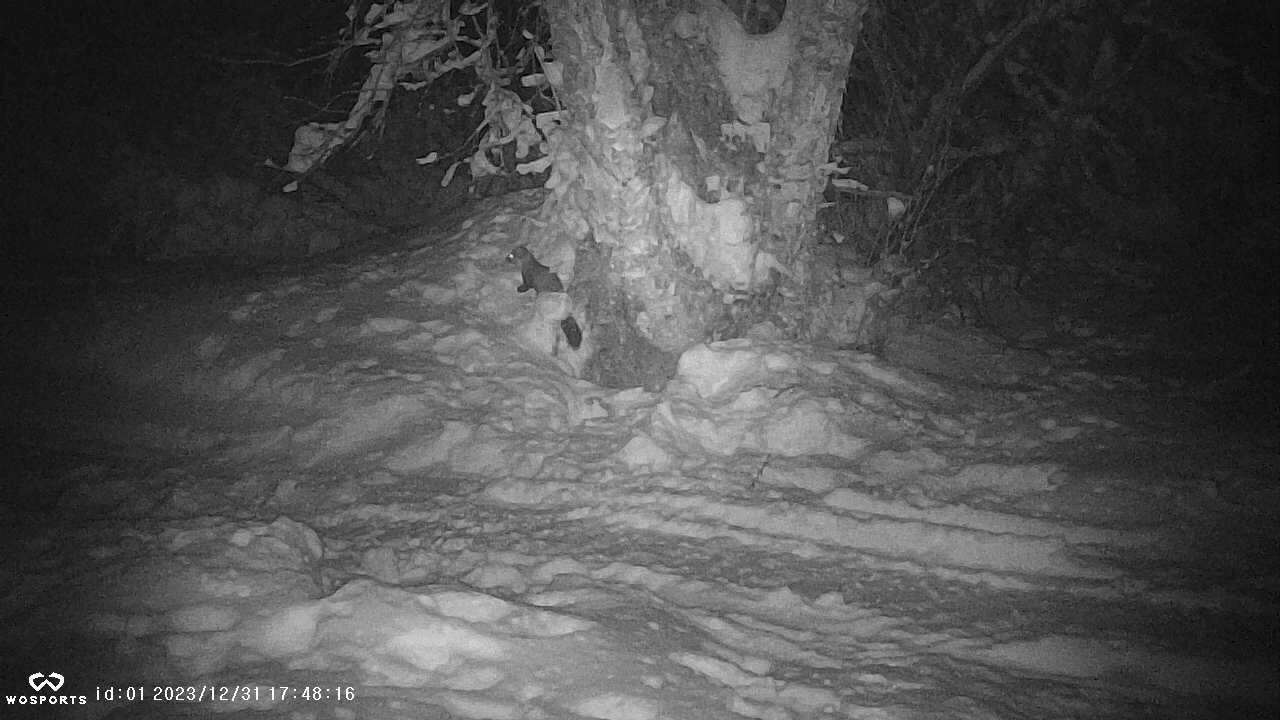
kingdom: Animalia
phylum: Chordata
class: Mammalia
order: Carnivora
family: Mustelidae
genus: Martes
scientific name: Martes americana
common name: American marten
